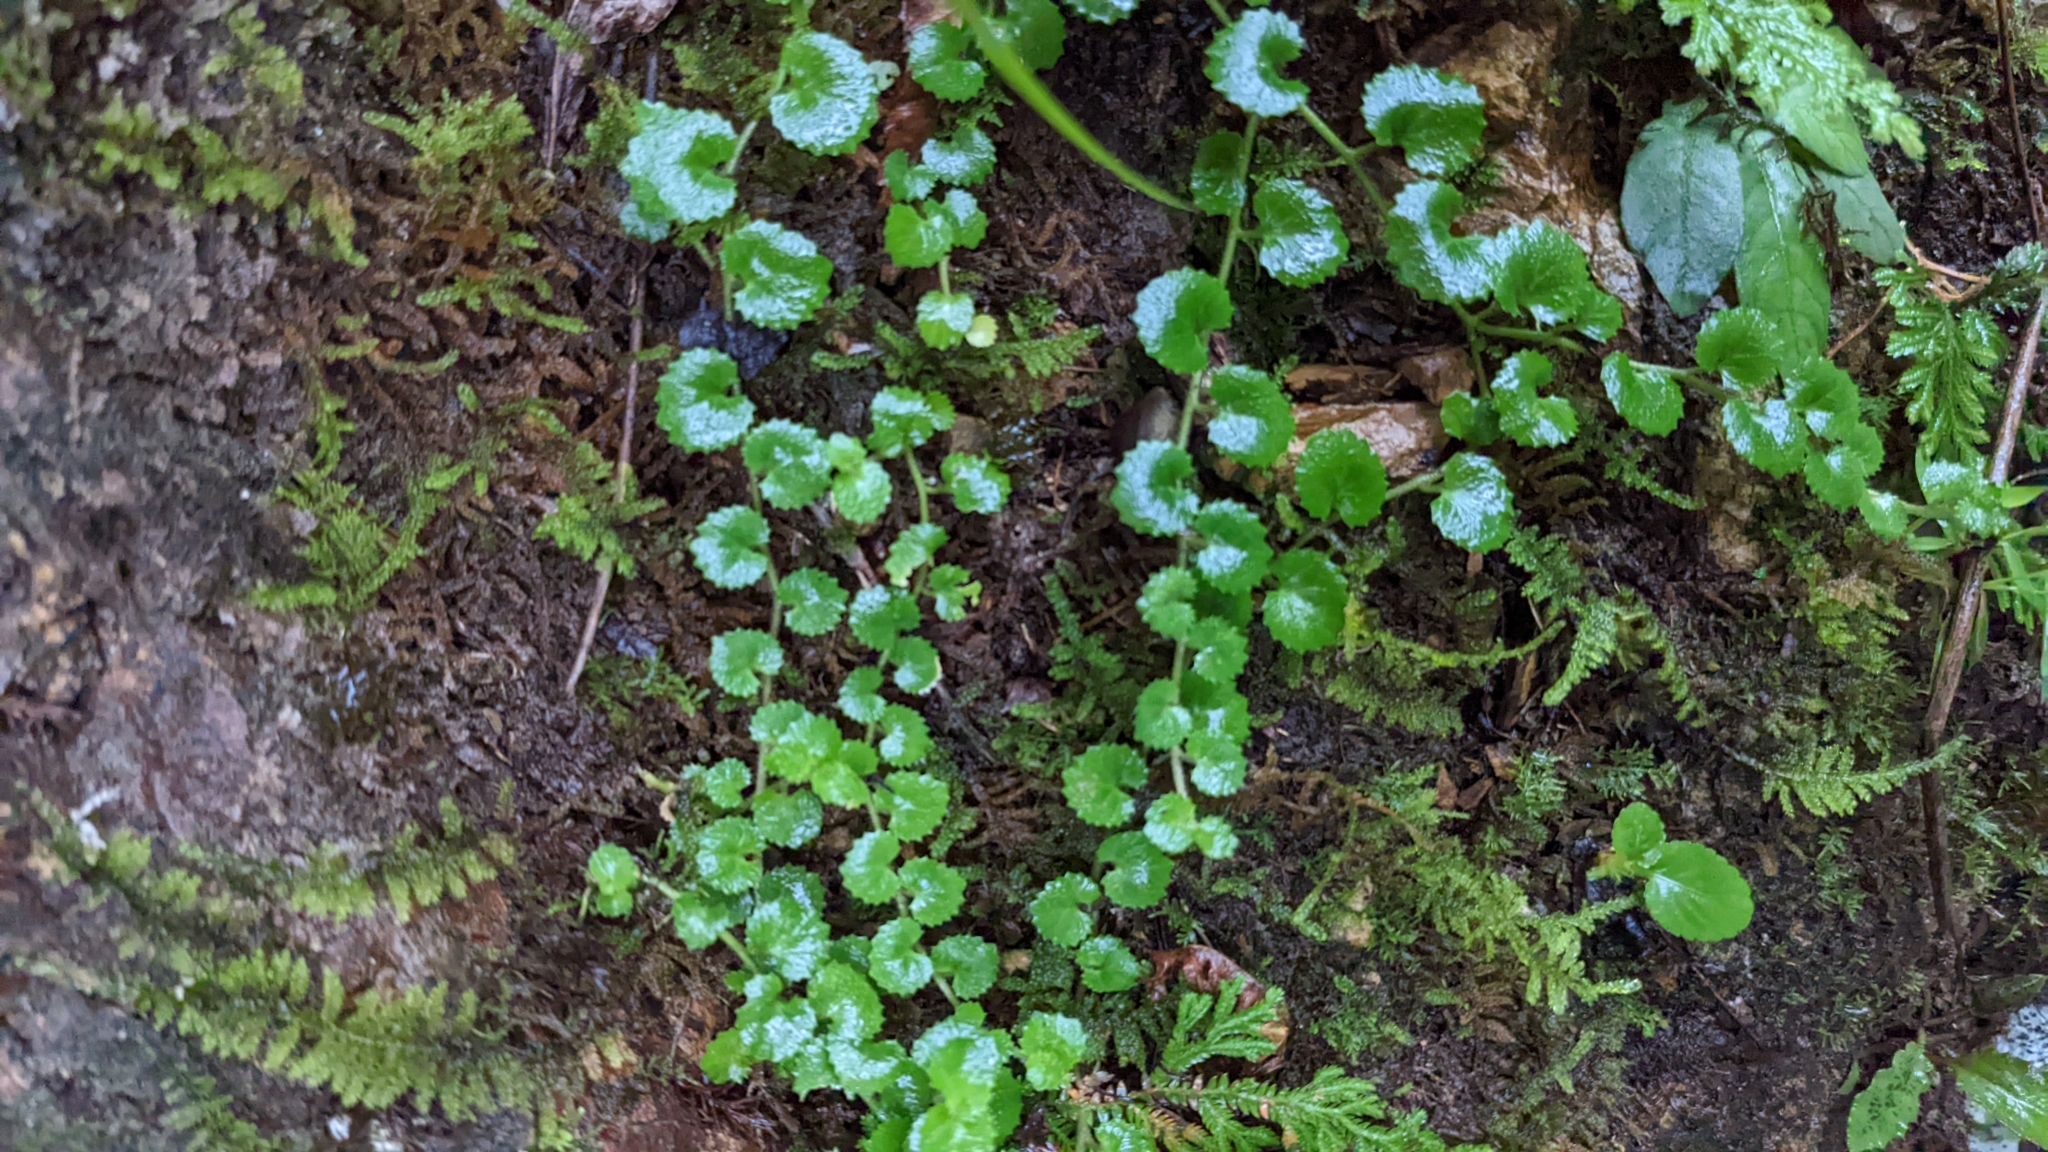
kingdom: Plantae
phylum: Tracheophyta
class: Magnoliopsida
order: Asterales
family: Campanulaceae
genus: Lobelia
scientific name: Lobelia nummularia
